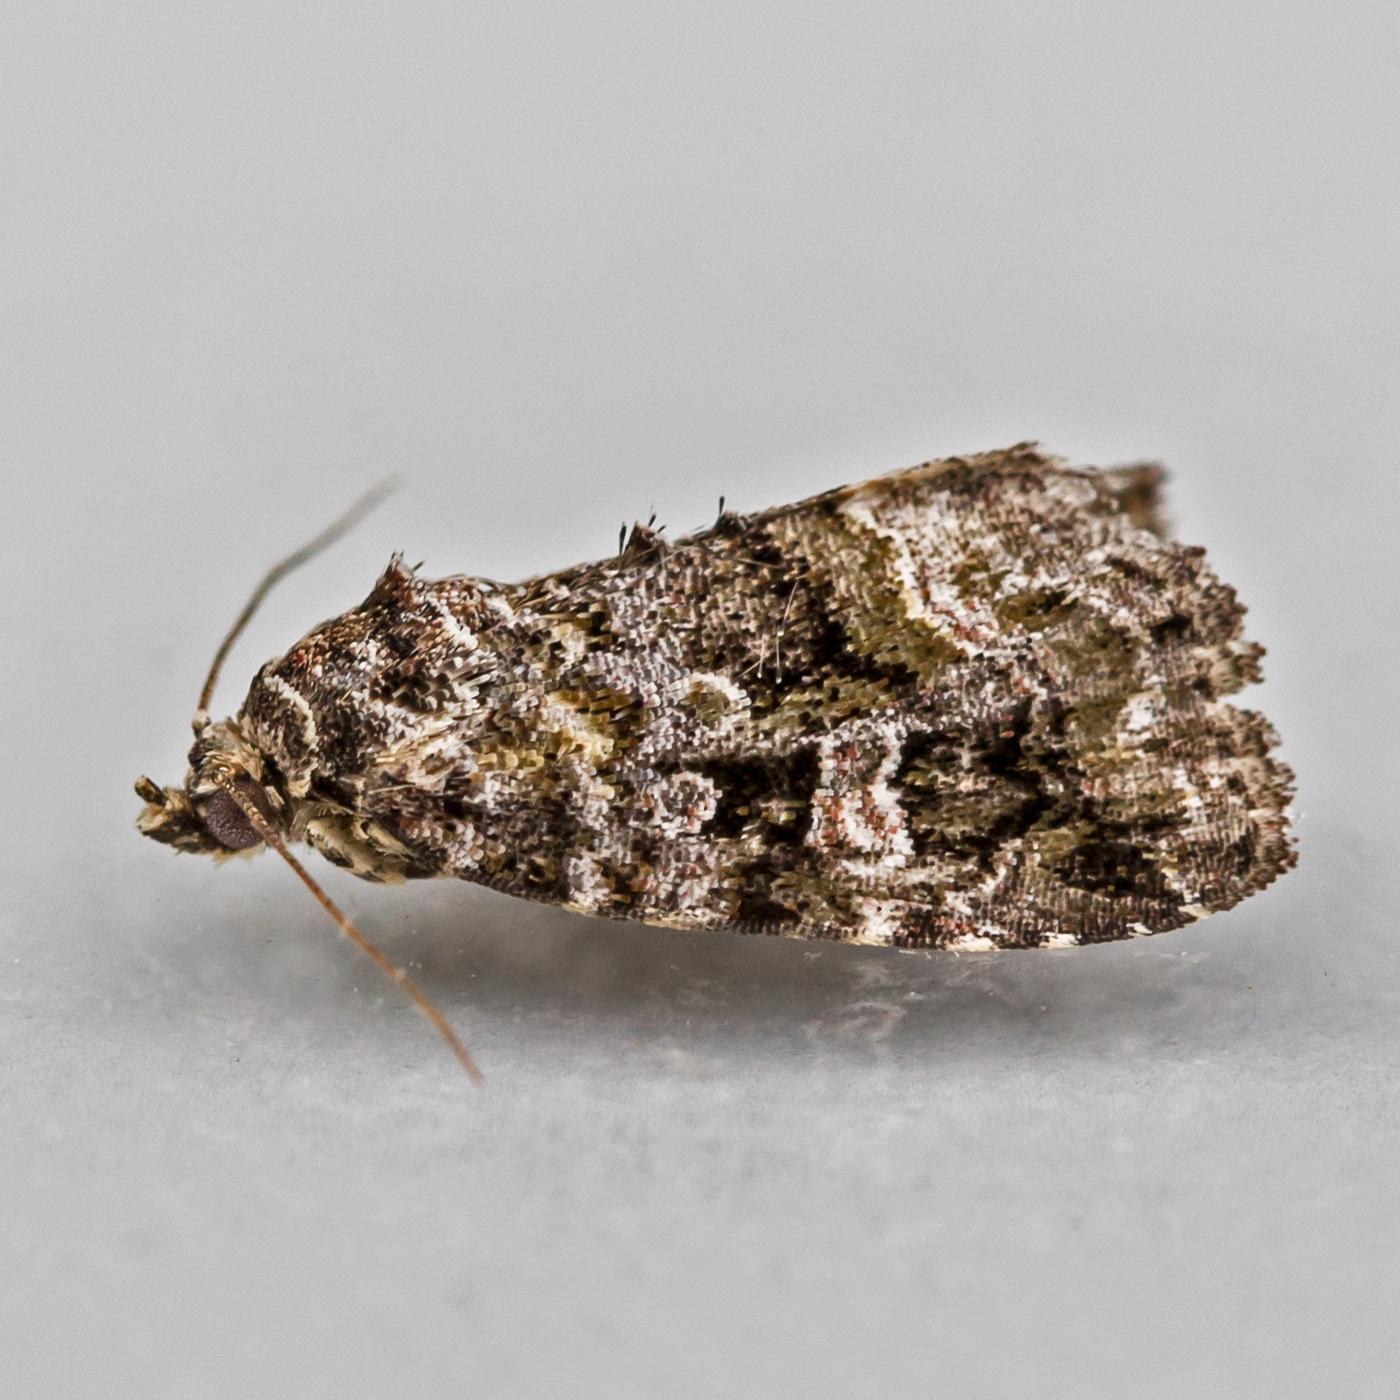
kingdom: Animalia
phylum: Arthropoda
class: Insecta
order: Lepidoptera
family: Noctuidae
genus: Protodeltote
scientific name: Protodeltote muscosula
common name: Large mossy glyph
